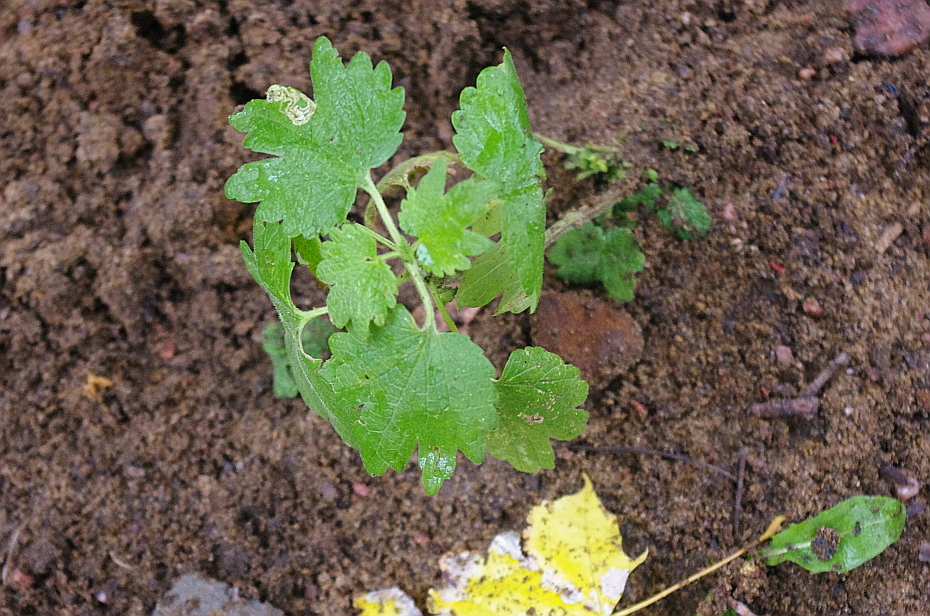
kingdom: Plantae
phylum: Tracheophyta
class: Magnoliopsida
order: Lamiales
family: Lamiaceae
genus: Leonurus
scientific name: Leonurus quinquelobatus
